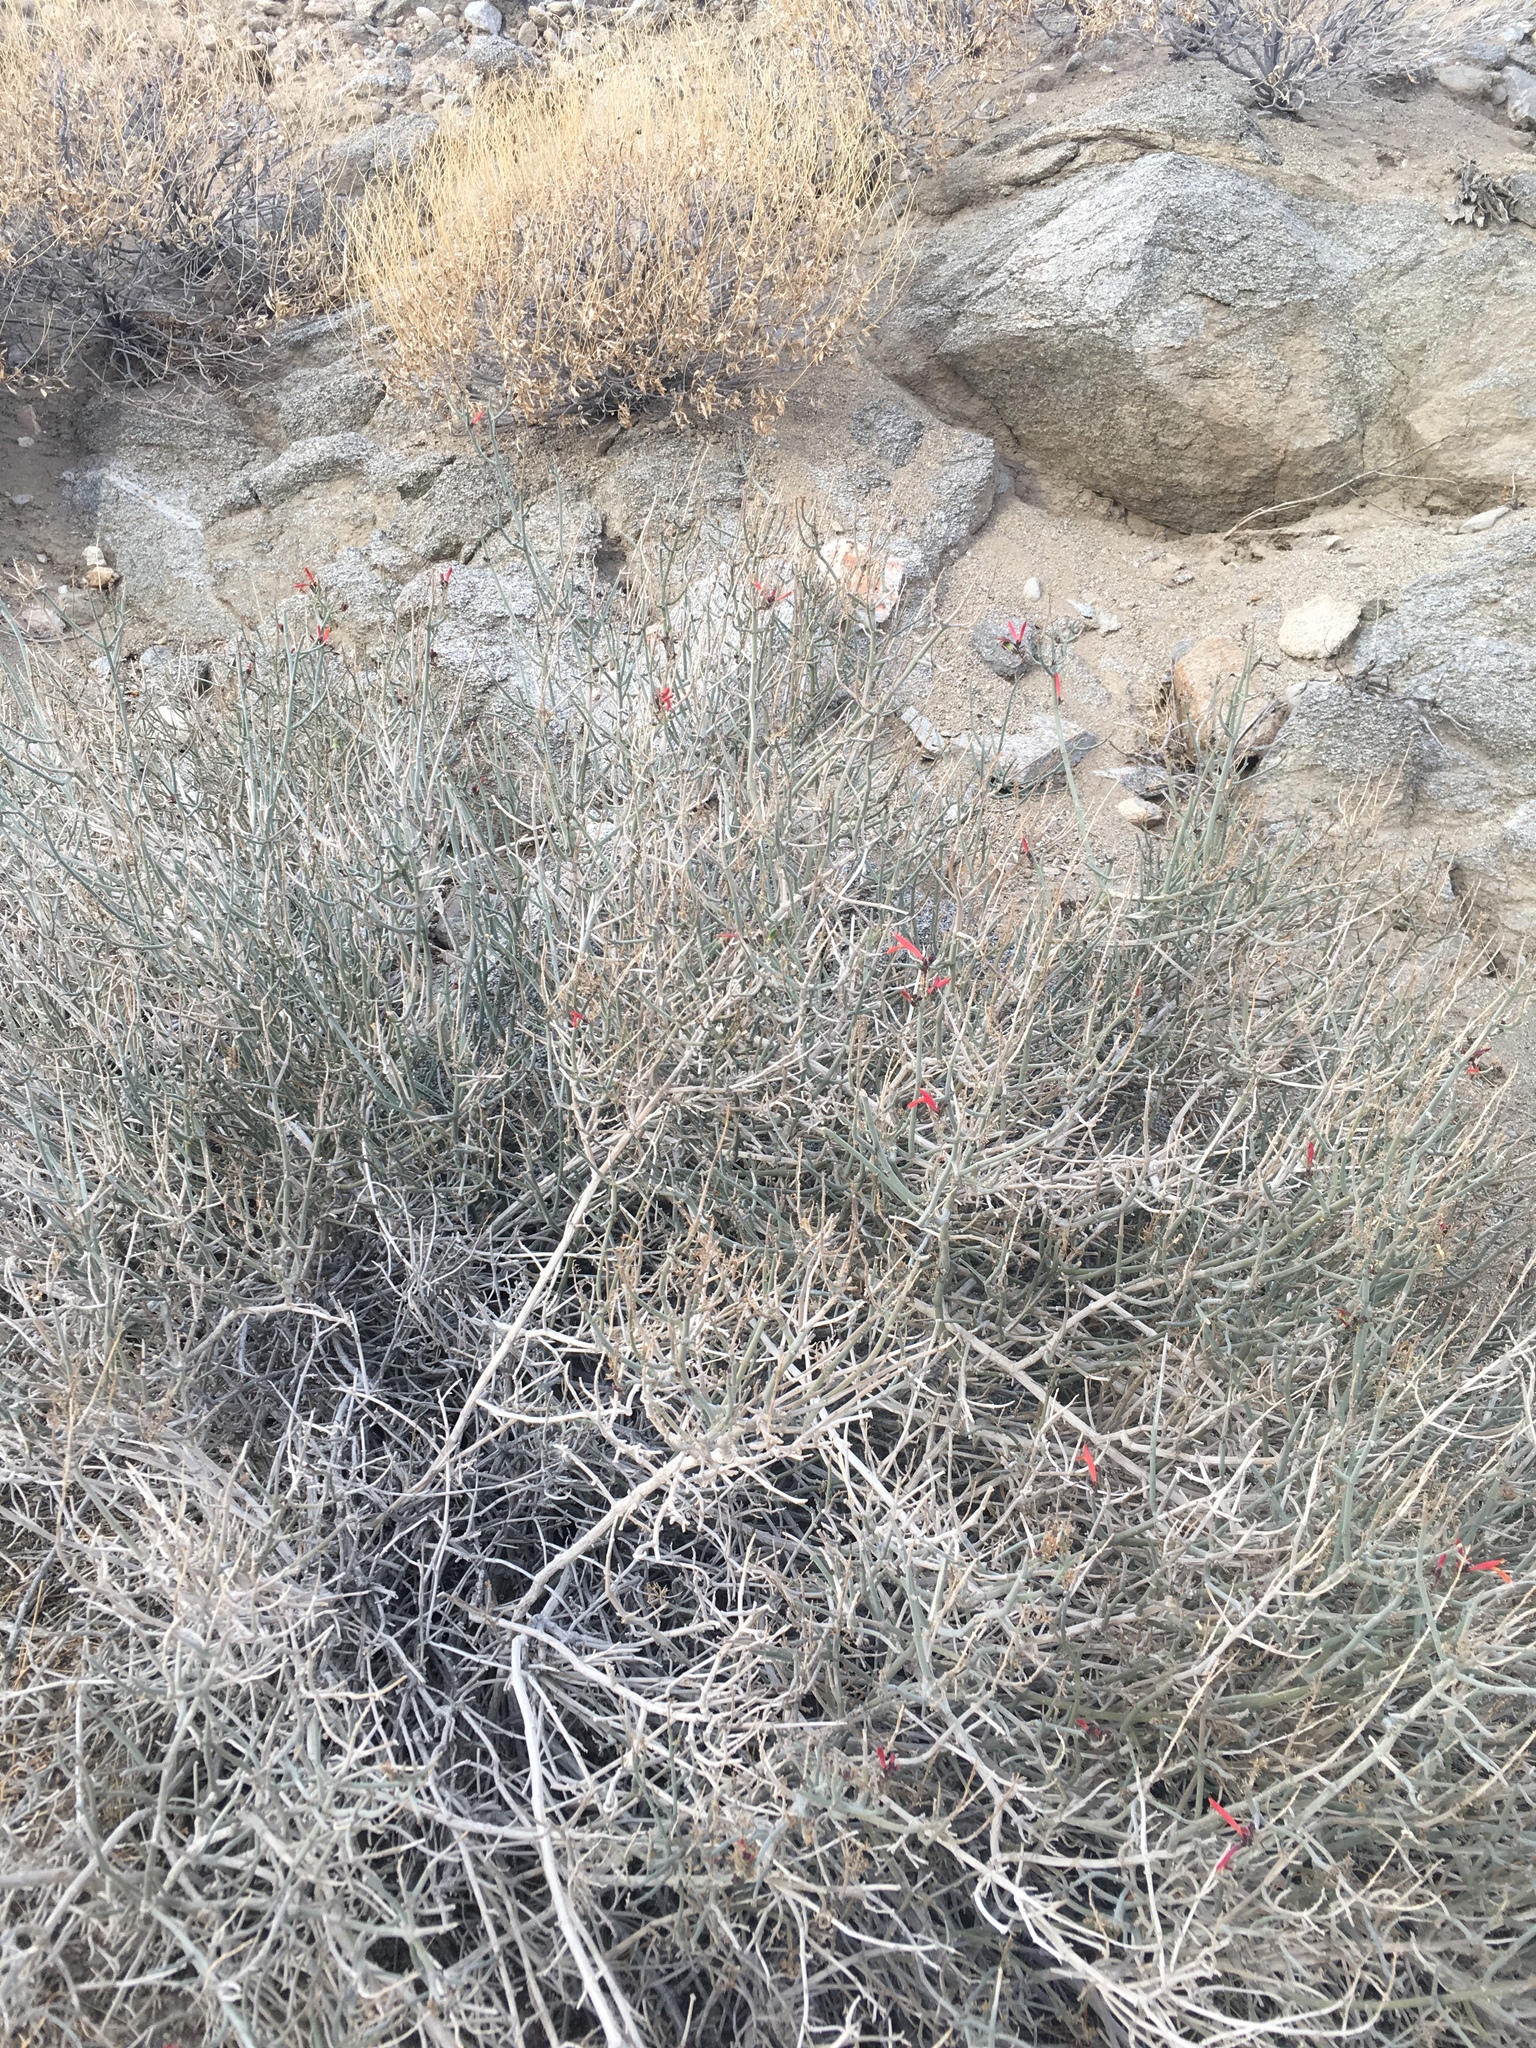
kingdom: Plantae
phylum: Tracheophyta
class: Magnoliopsida
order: Lamiales
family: Acanthaceae
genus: Justicia
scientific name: Justicia californica
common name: Chuparosa-honeysuckle
